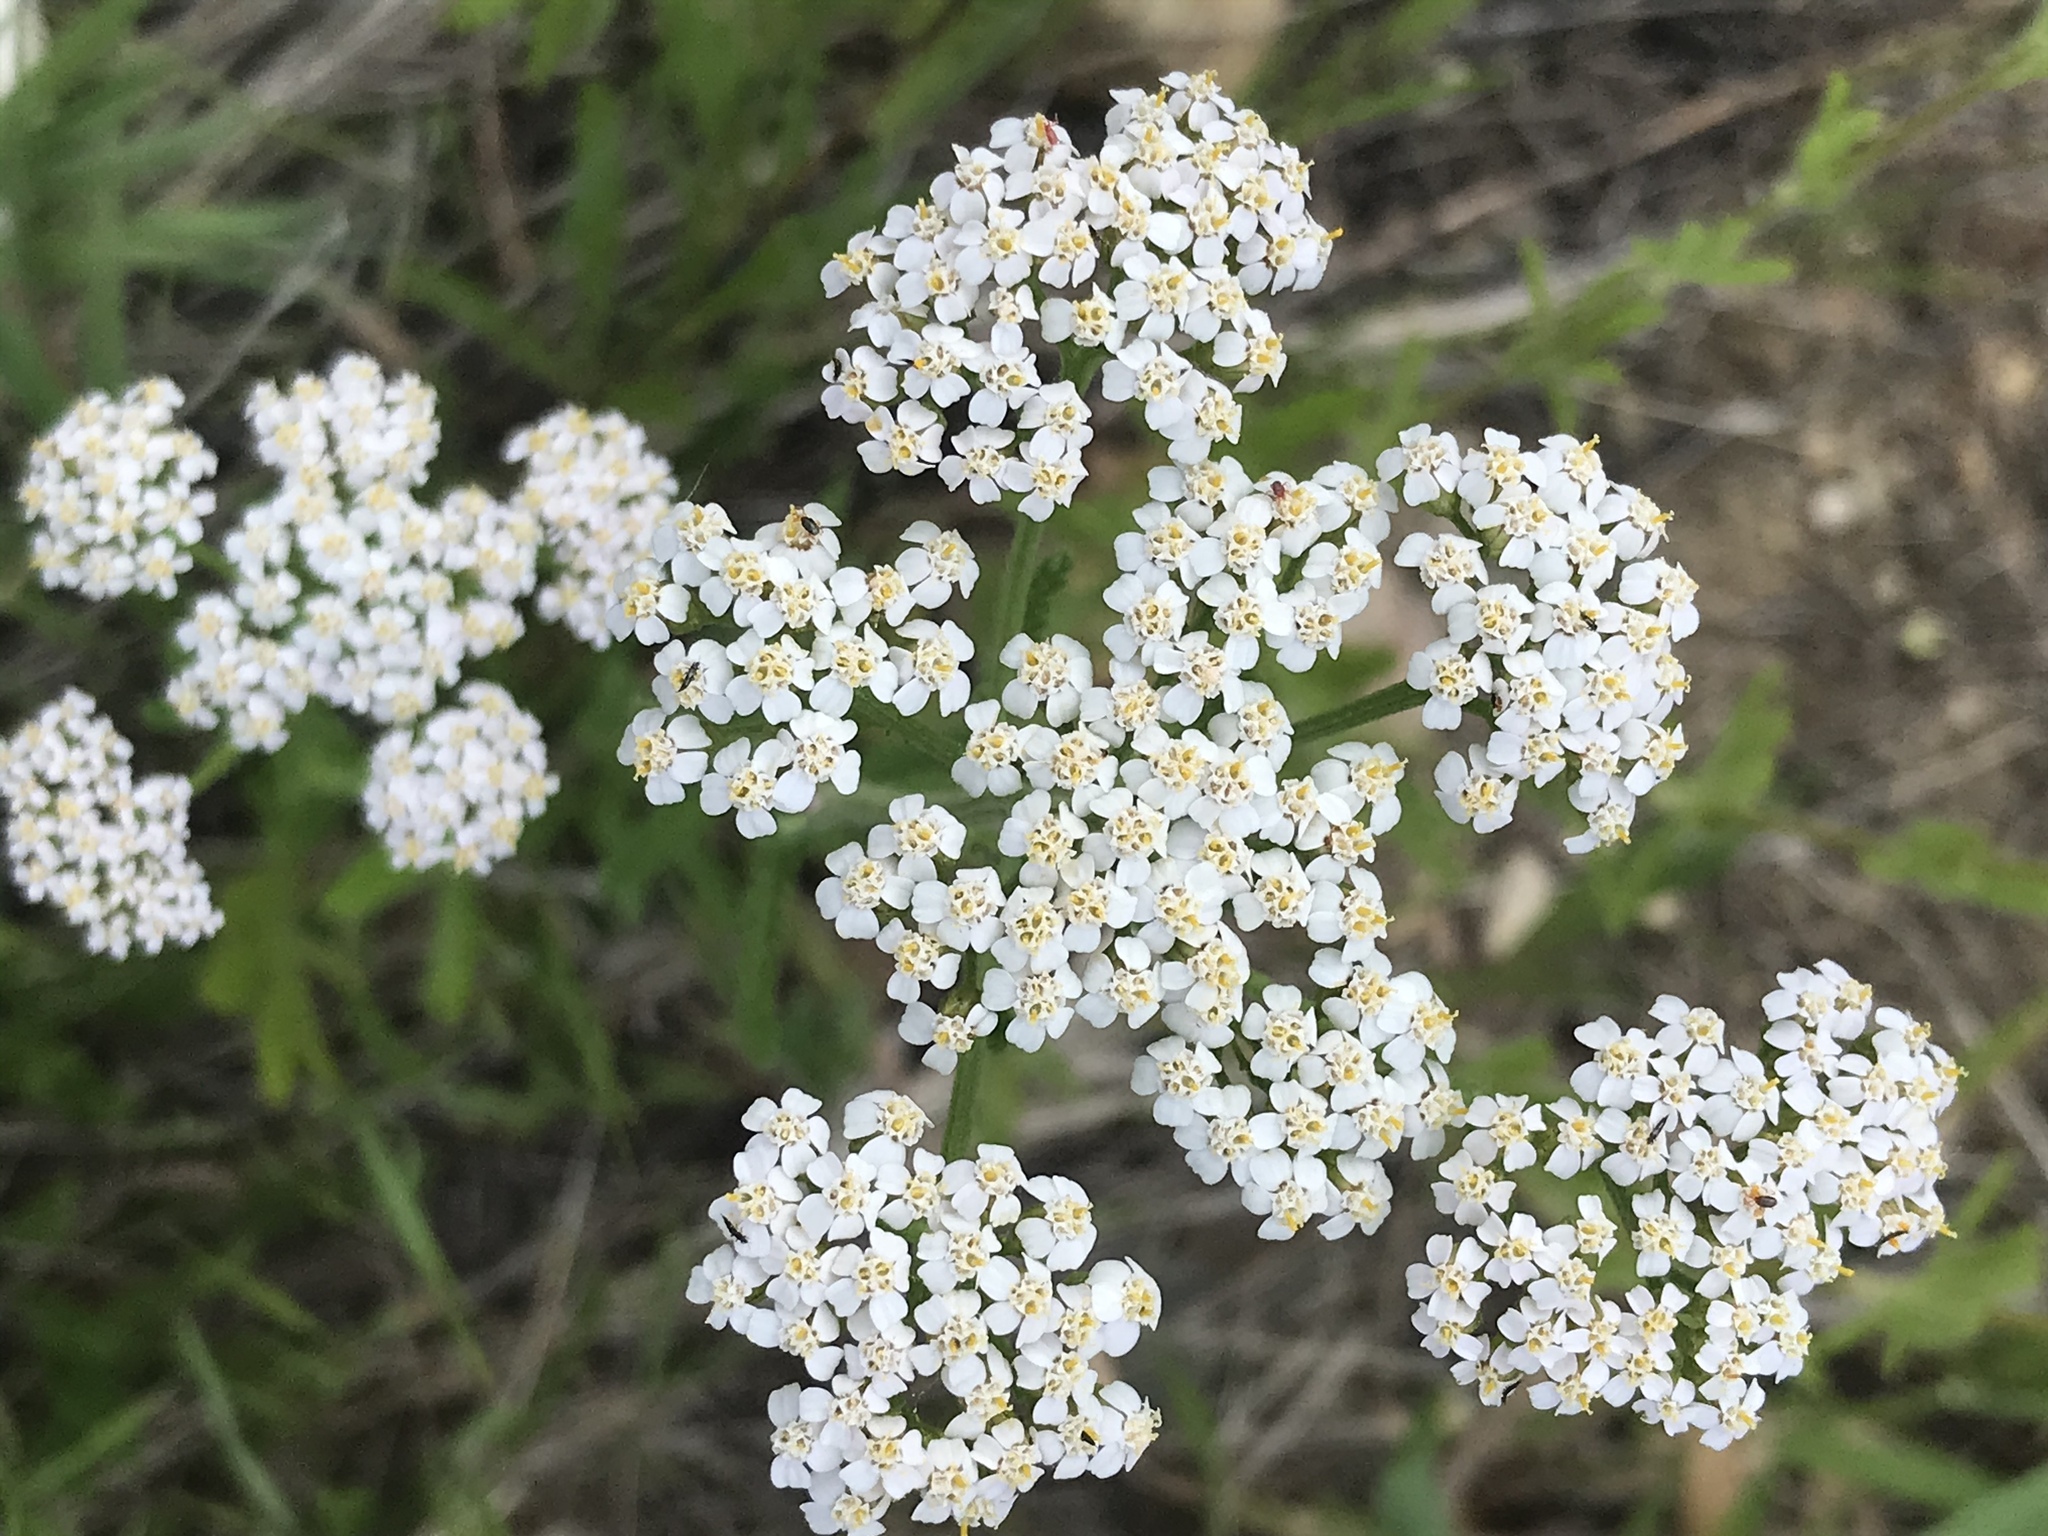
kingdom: Plantae
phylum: Tracheophyta
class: Magnoliopsida
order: Asterales
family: Asteraceae
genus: Achillea
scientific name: Achillea millefolium
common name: Yarrow
